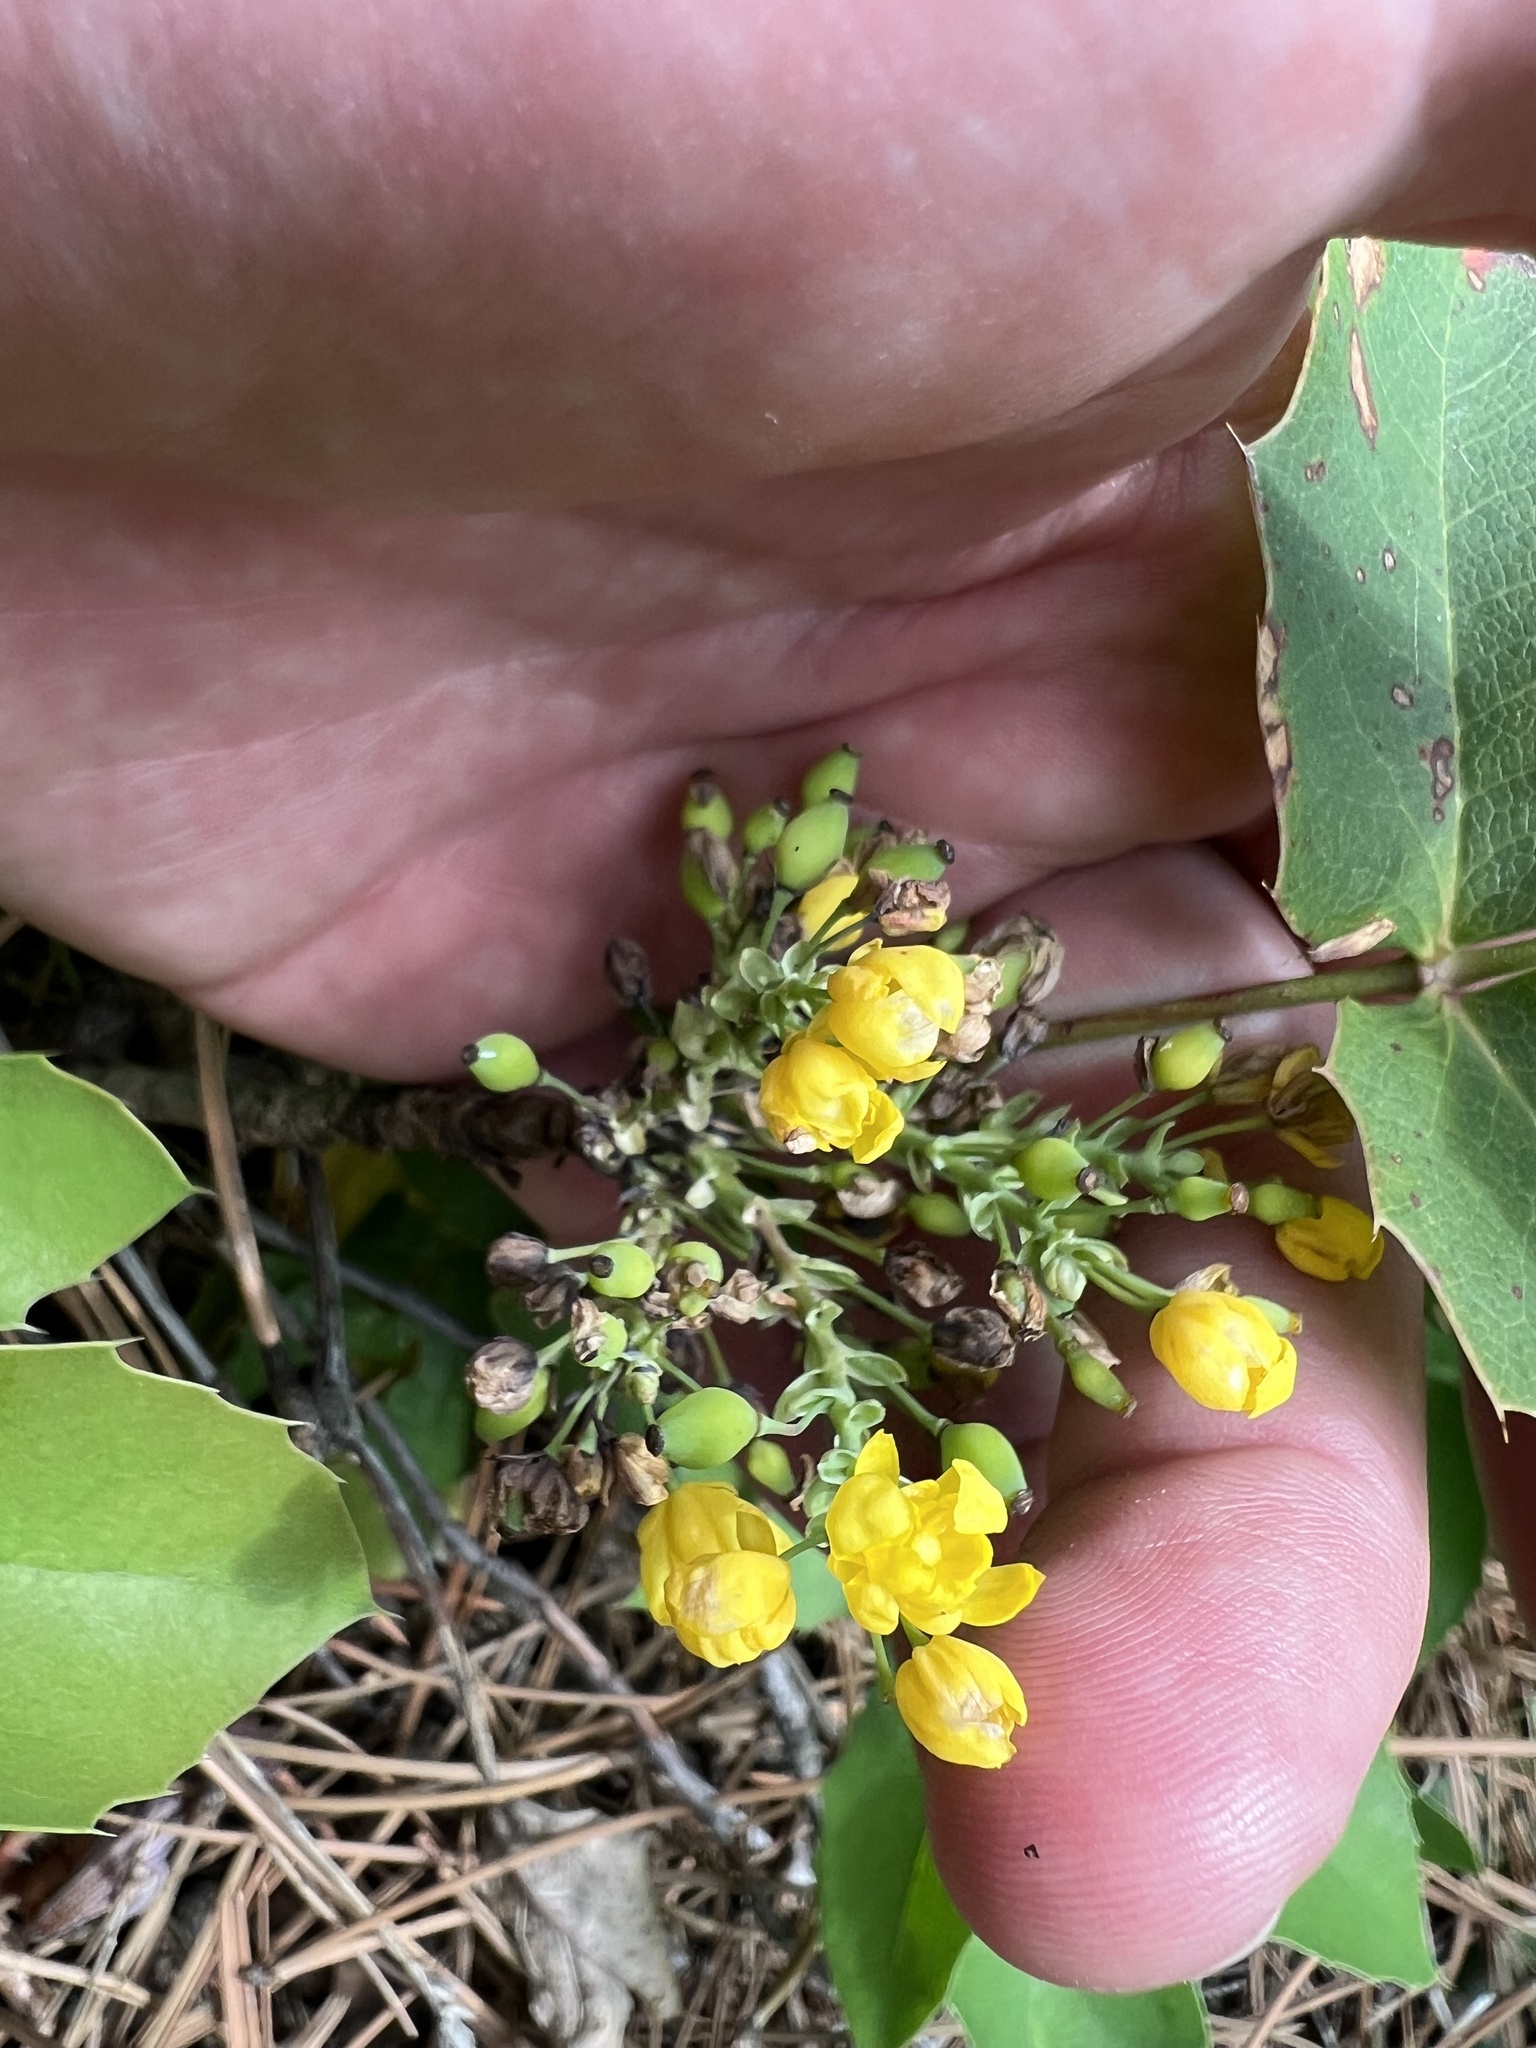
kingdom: Plantae
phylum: Tracheophyta
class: Magnoliopsida
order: Ranunculales
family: Berberidaceae
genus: Mahonia
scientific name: Mahonia repens
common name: Creeping oregon-grape
